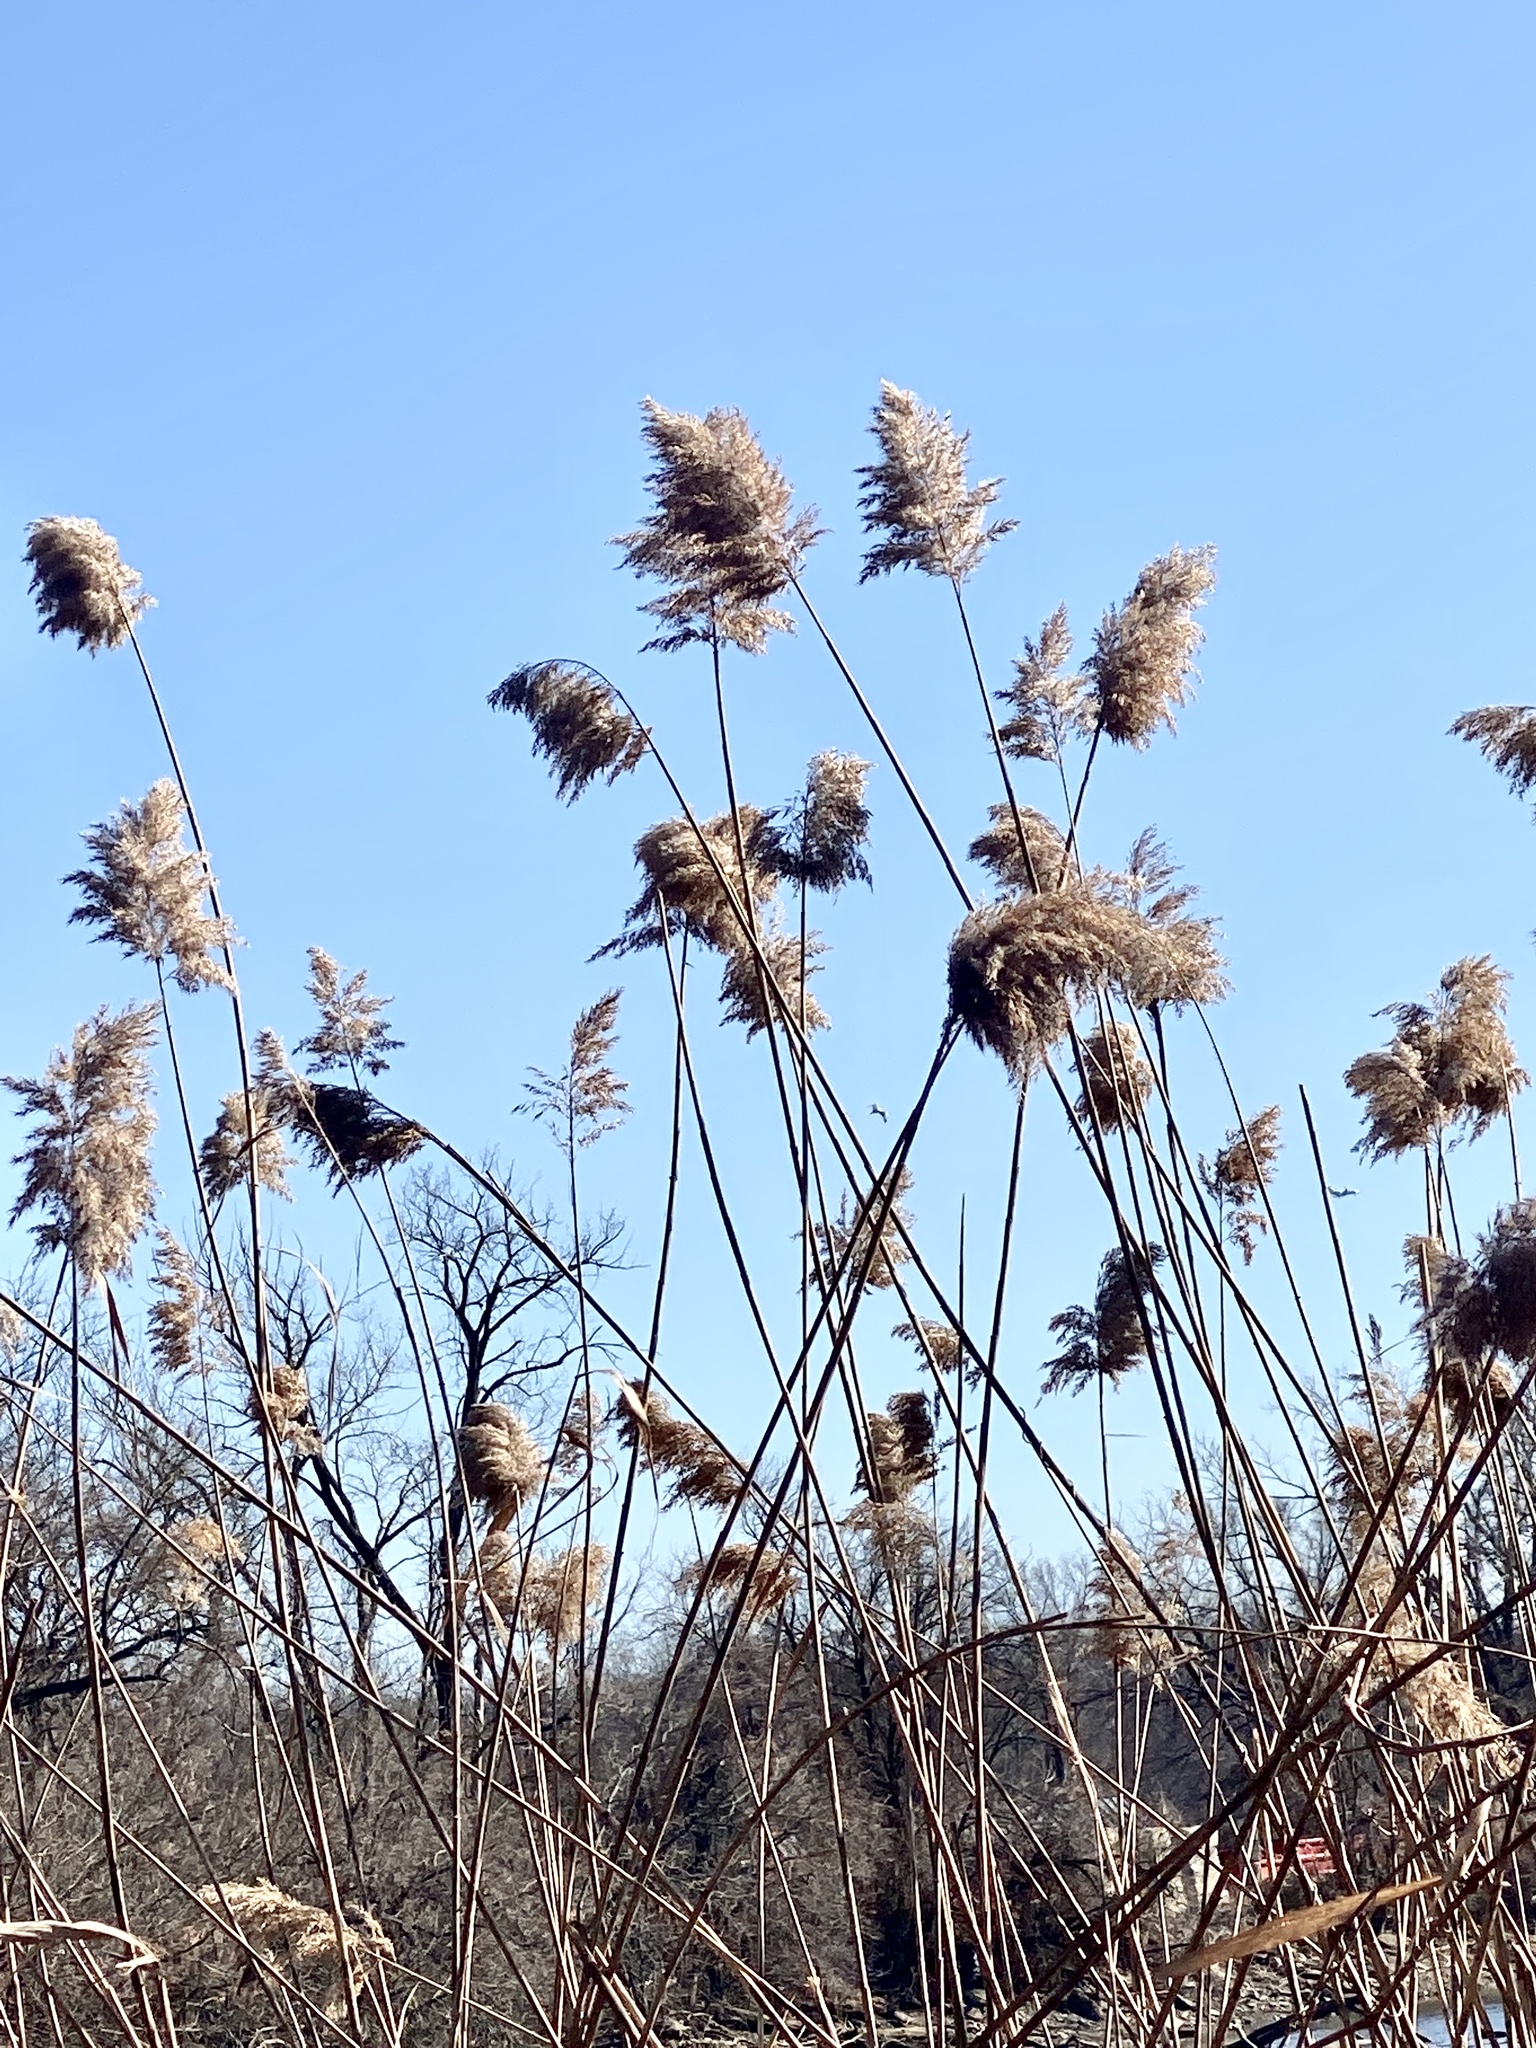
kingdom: Plantae
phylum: Tracheophyta
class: Liliopsida
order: Poales
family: Poaceae
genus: Phragmites
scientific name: Phragmites australis
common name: Common reed
